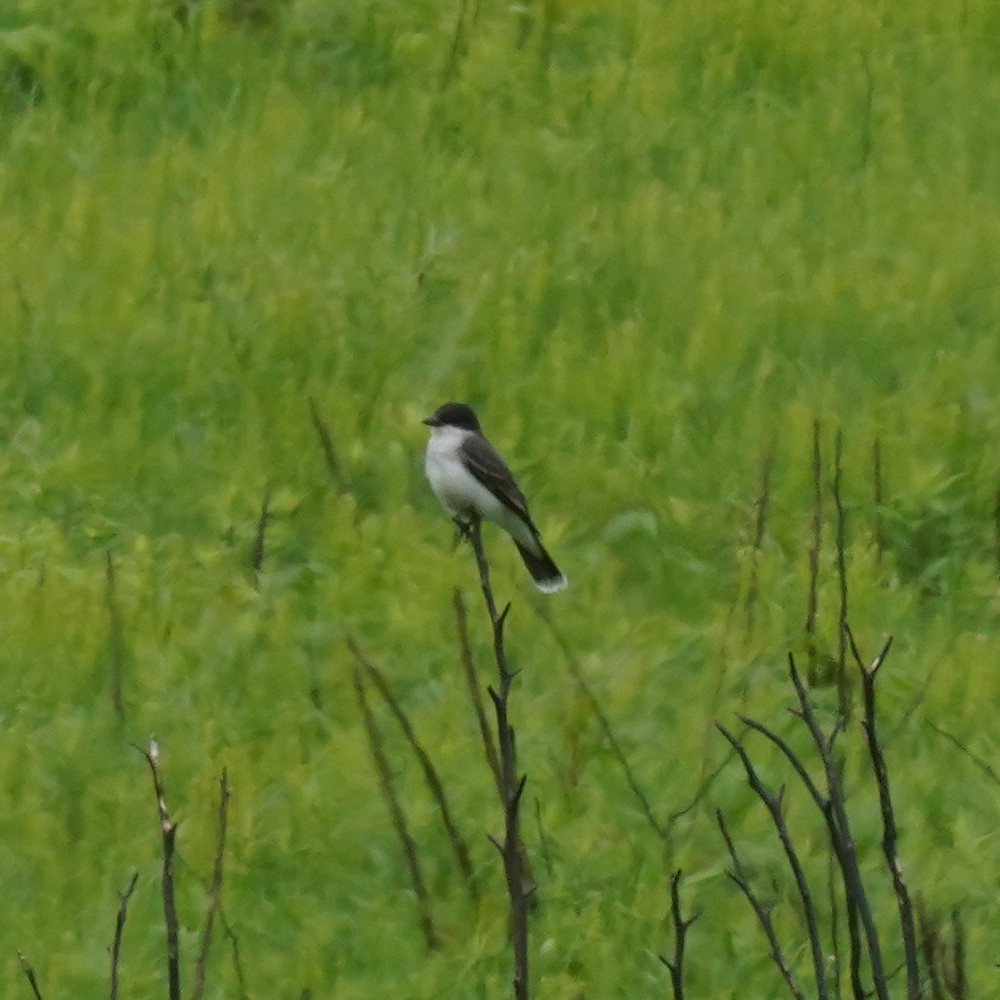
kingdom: Animalia
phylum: Chordata
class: Aves
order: Passeriformes
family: Tyrannidae
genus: Tyrannus
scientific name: Tyrannus tyrannus
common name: Eastern kingbird
